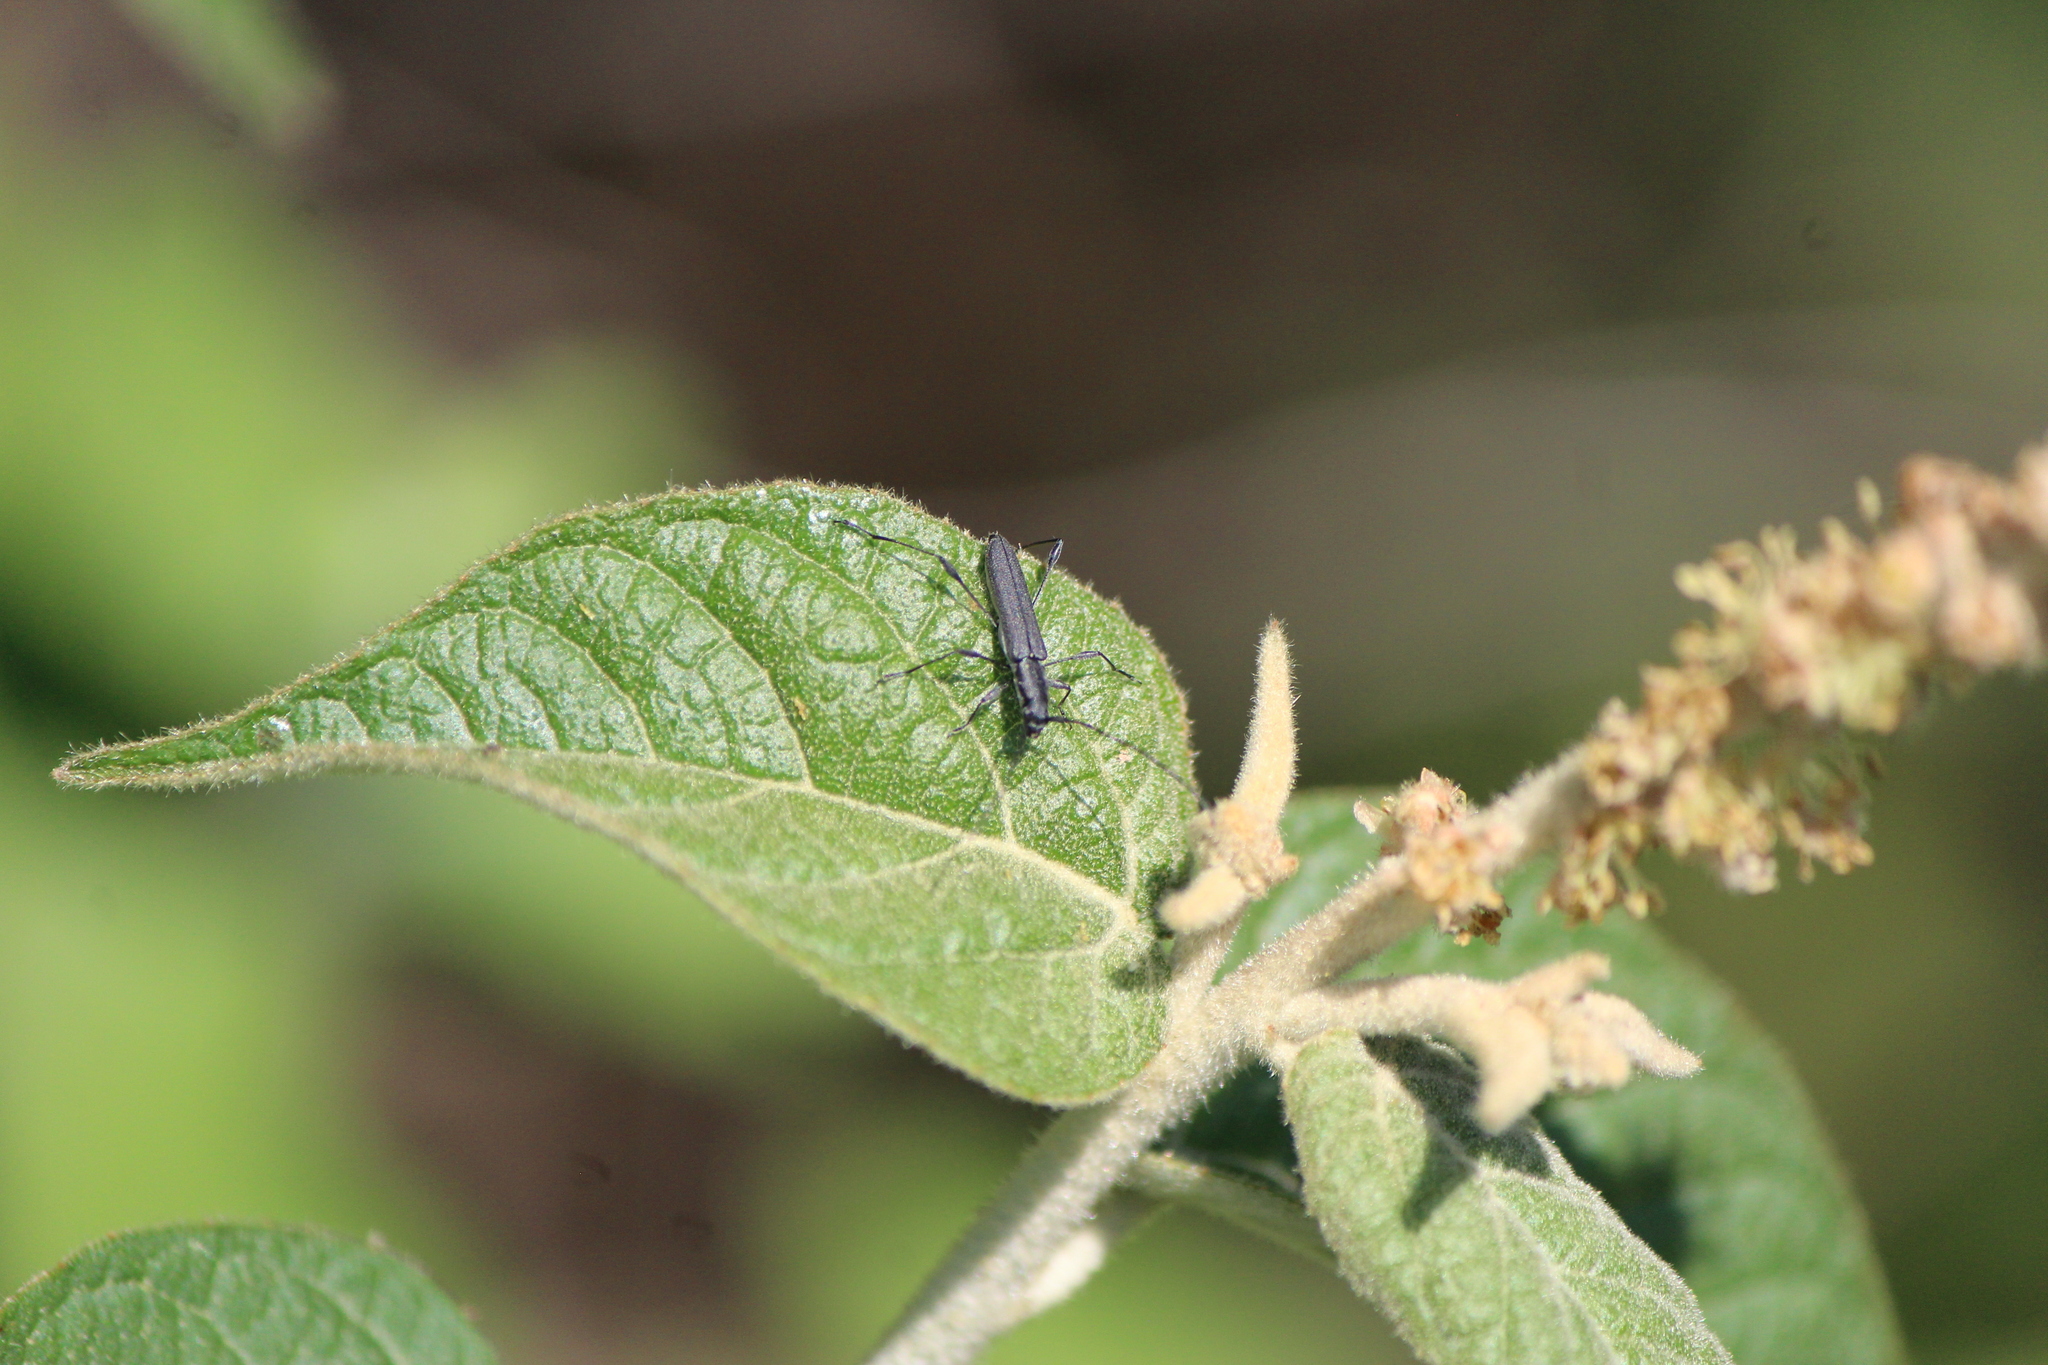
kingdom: Animalia
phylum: Arthropoda
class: Insecta
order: Coleoptera
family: Cerambycidae
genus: Rhopalophora
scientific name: Rhopalophora tenuis
